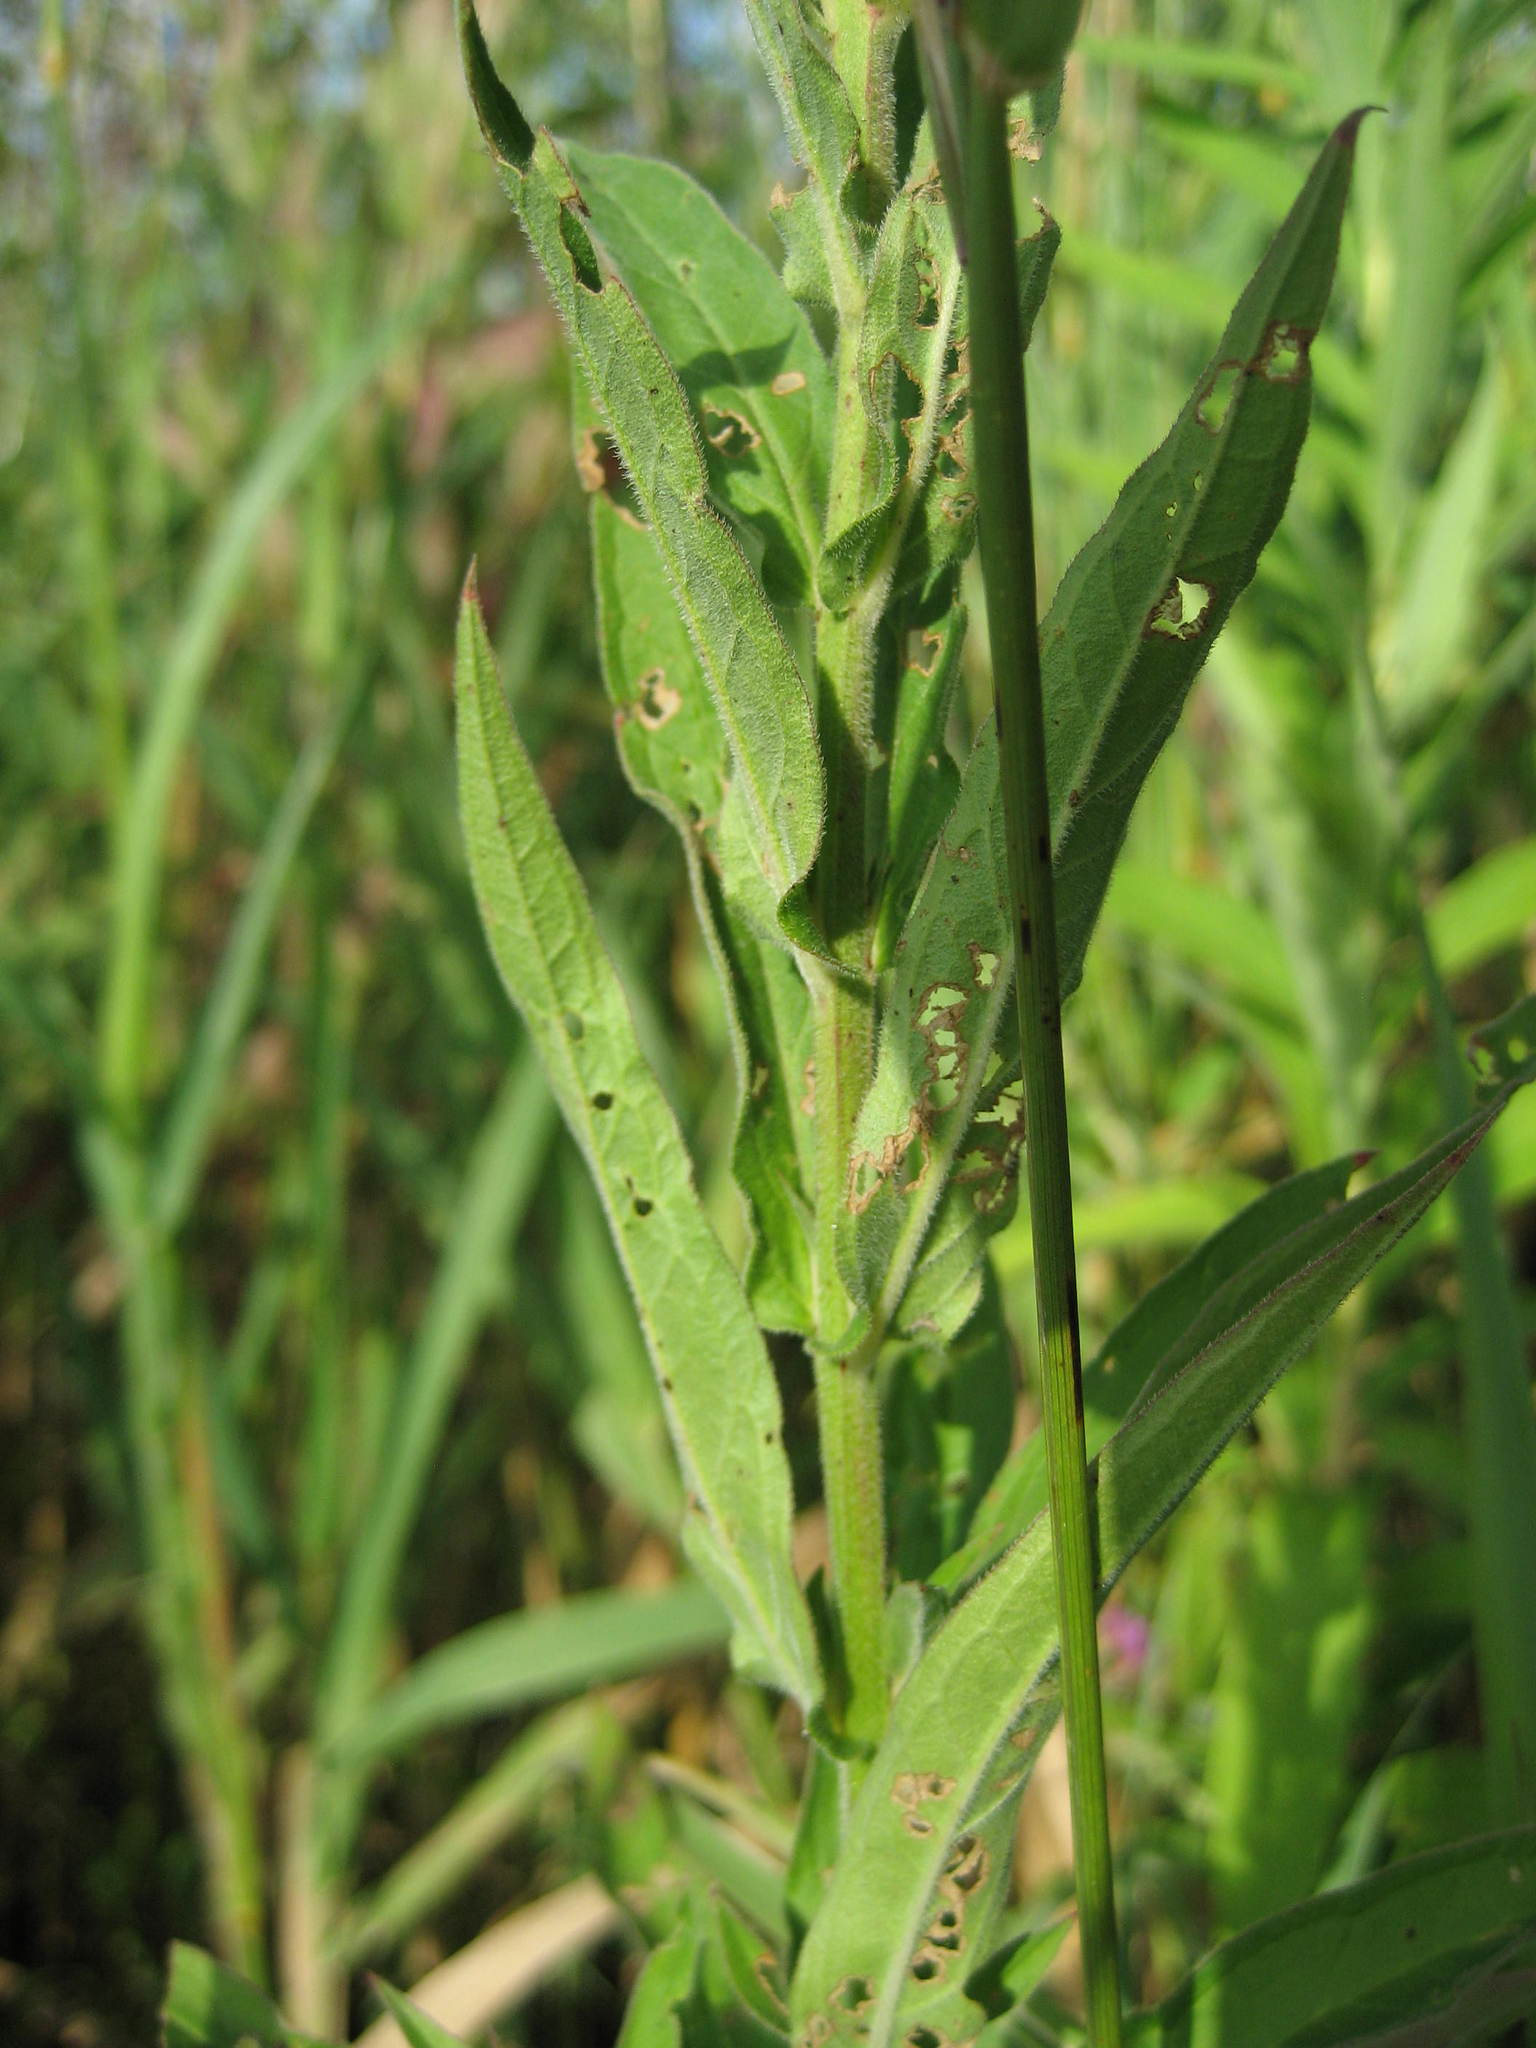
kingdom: Plantae
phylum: Tracheophyta
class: Magnoliopsida
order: Myrtales
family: Lythraceae
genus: Lythrum
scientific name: Lythrum salicaria
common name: Purple loosestrife
